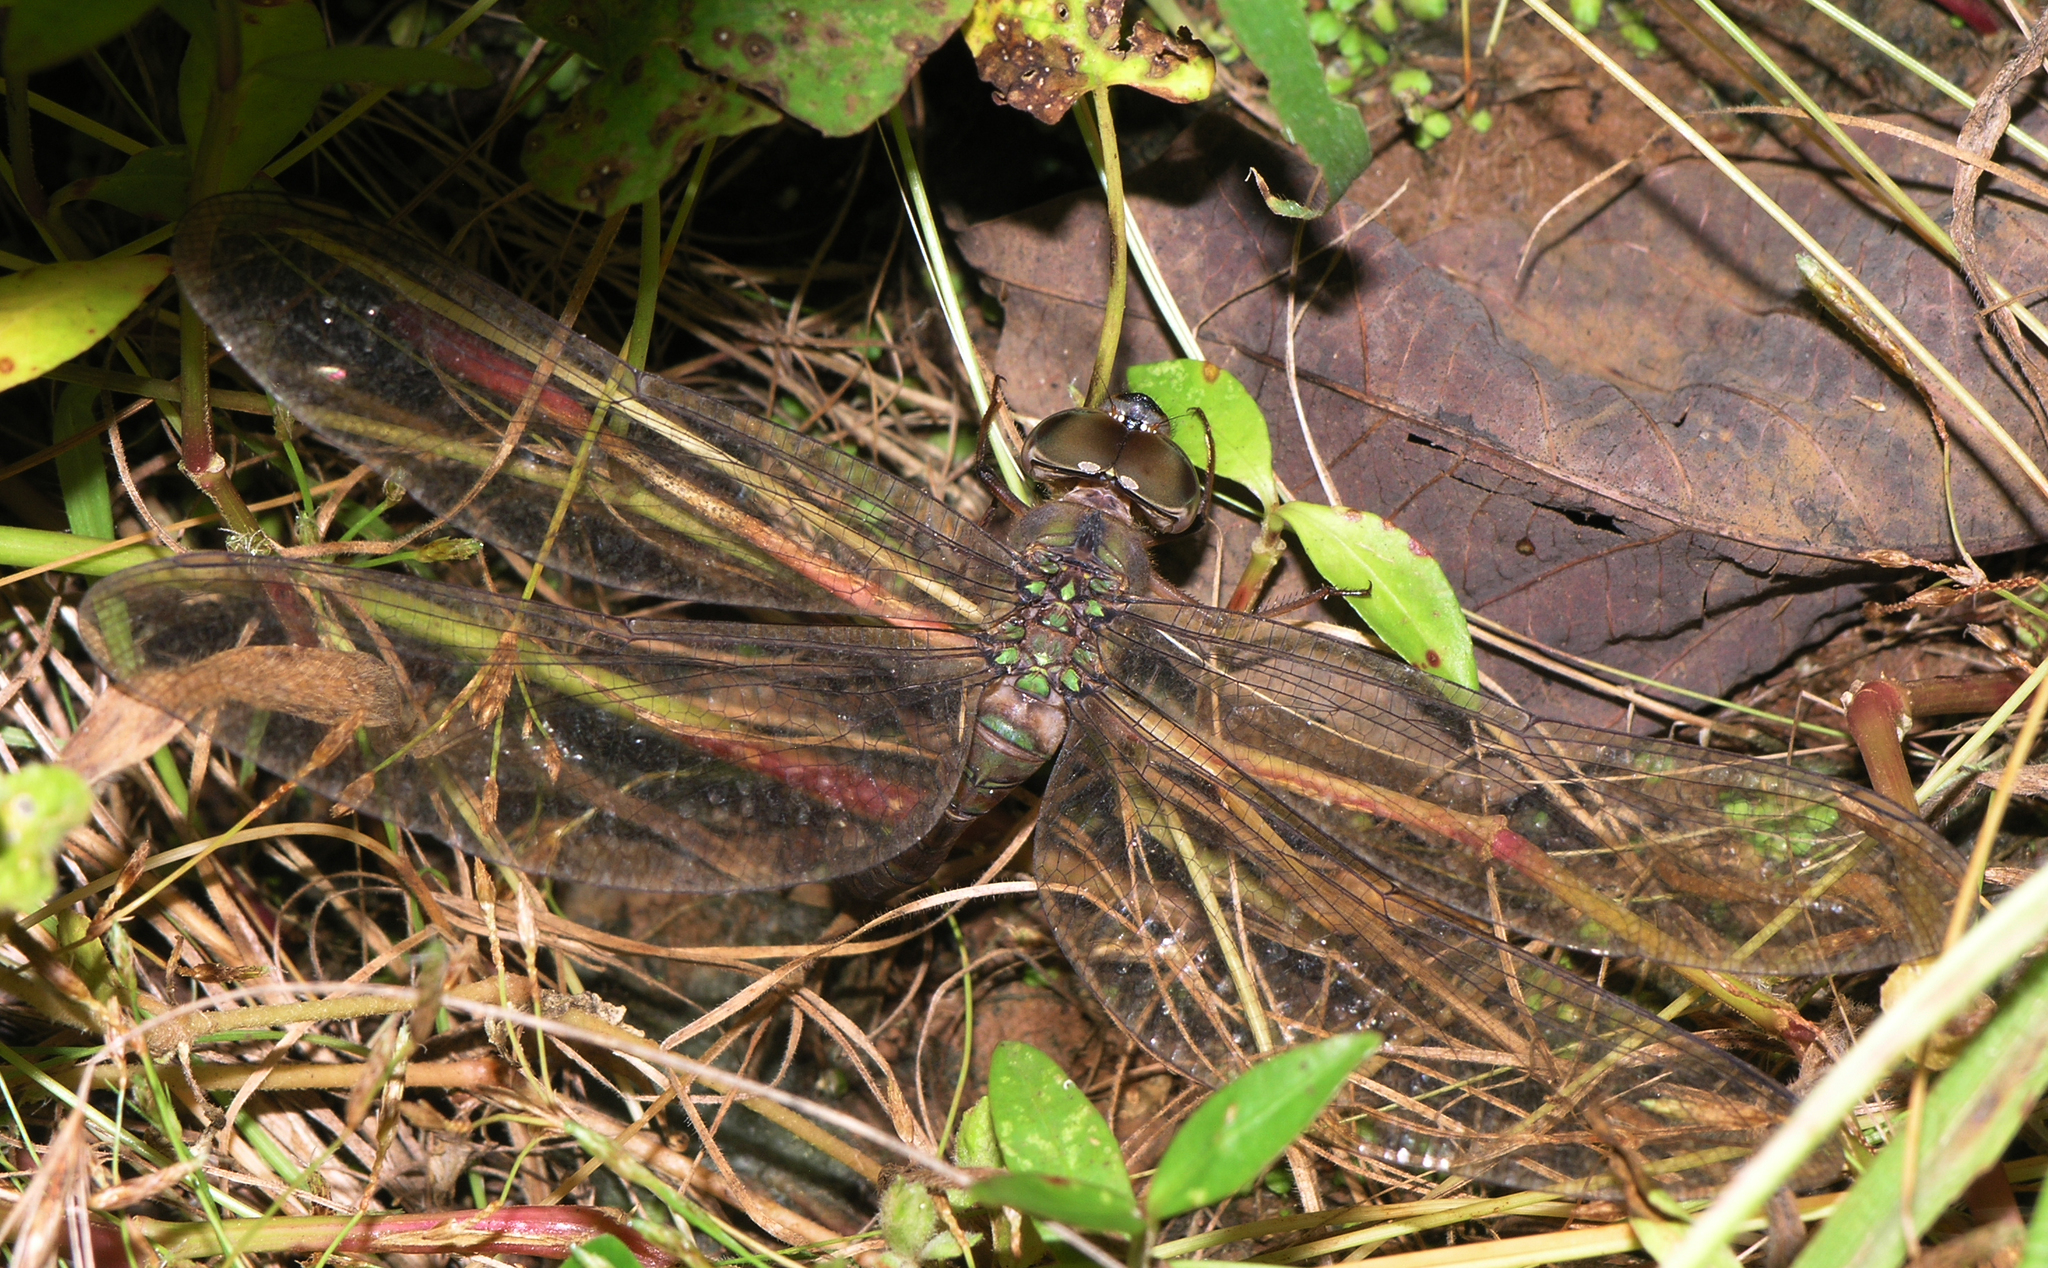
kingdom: Animalia
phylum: Arthropoda
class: Insecta
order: Odonata
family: Aeshnidae
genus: Gynacantha
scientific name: Gynacantha subinterrupta
